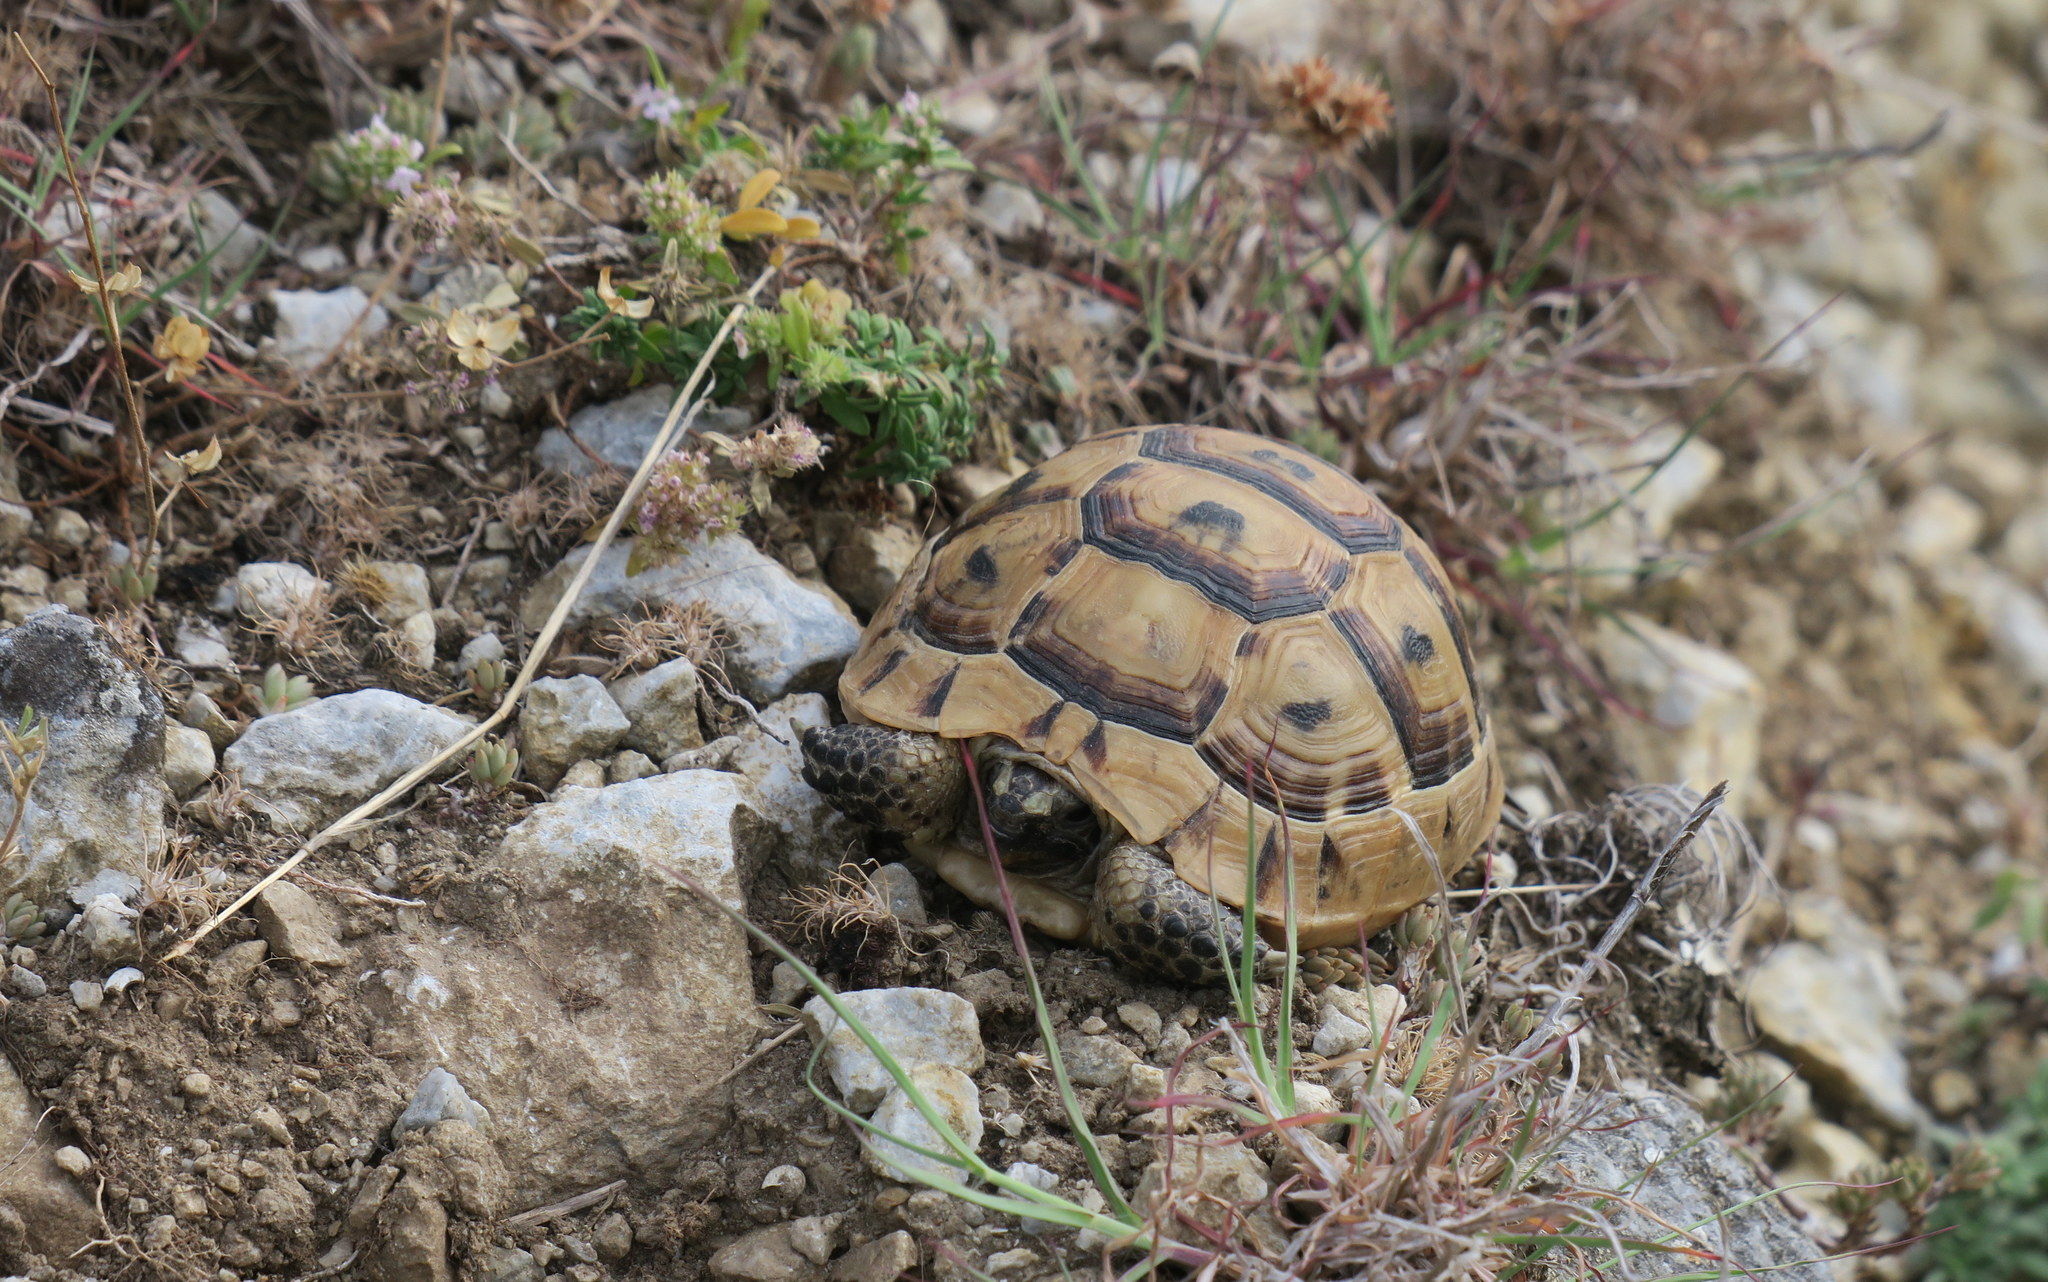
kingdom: Animalia
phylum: Chordata
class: Testudines
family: Testudinidae
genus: Testudo
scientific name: Testudo graeca
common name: Common tortoise
